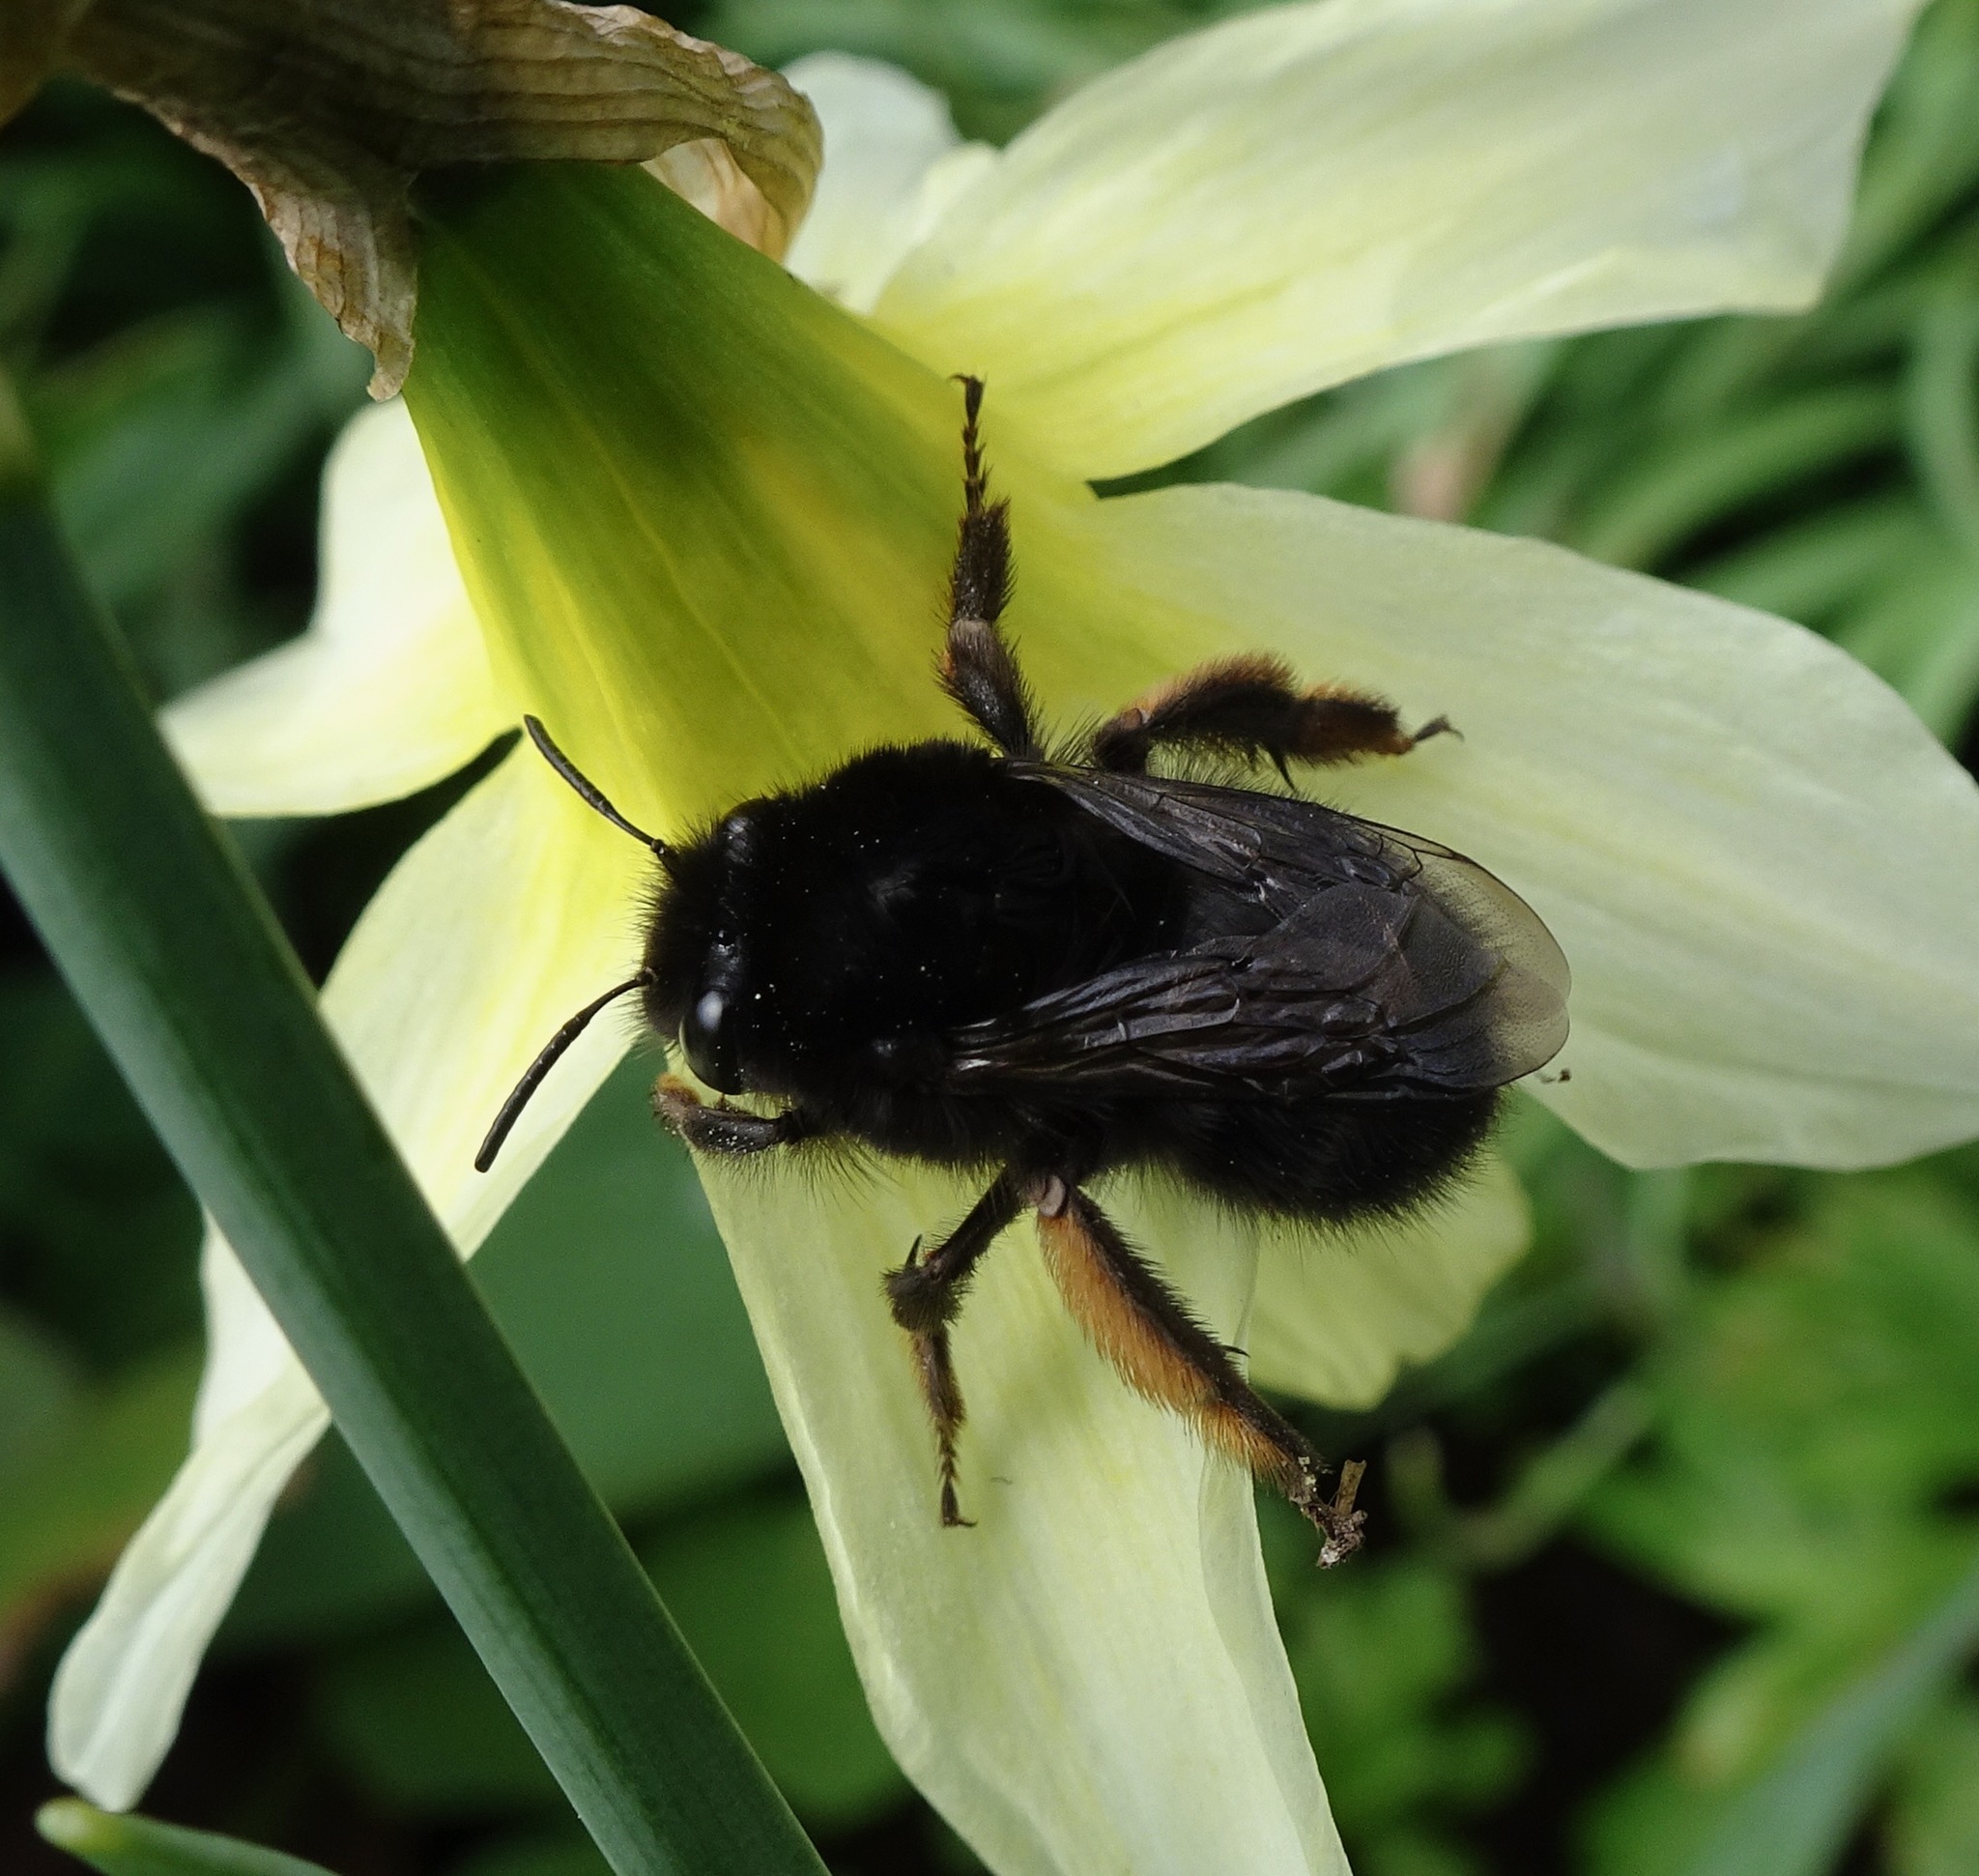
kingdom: Animalia
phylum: Arthropoda
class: Insecta
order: Hymenoptera
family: Apidae
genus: Anthophora
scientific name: Anthophora plumipes
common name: Hairy-footed flower bee
